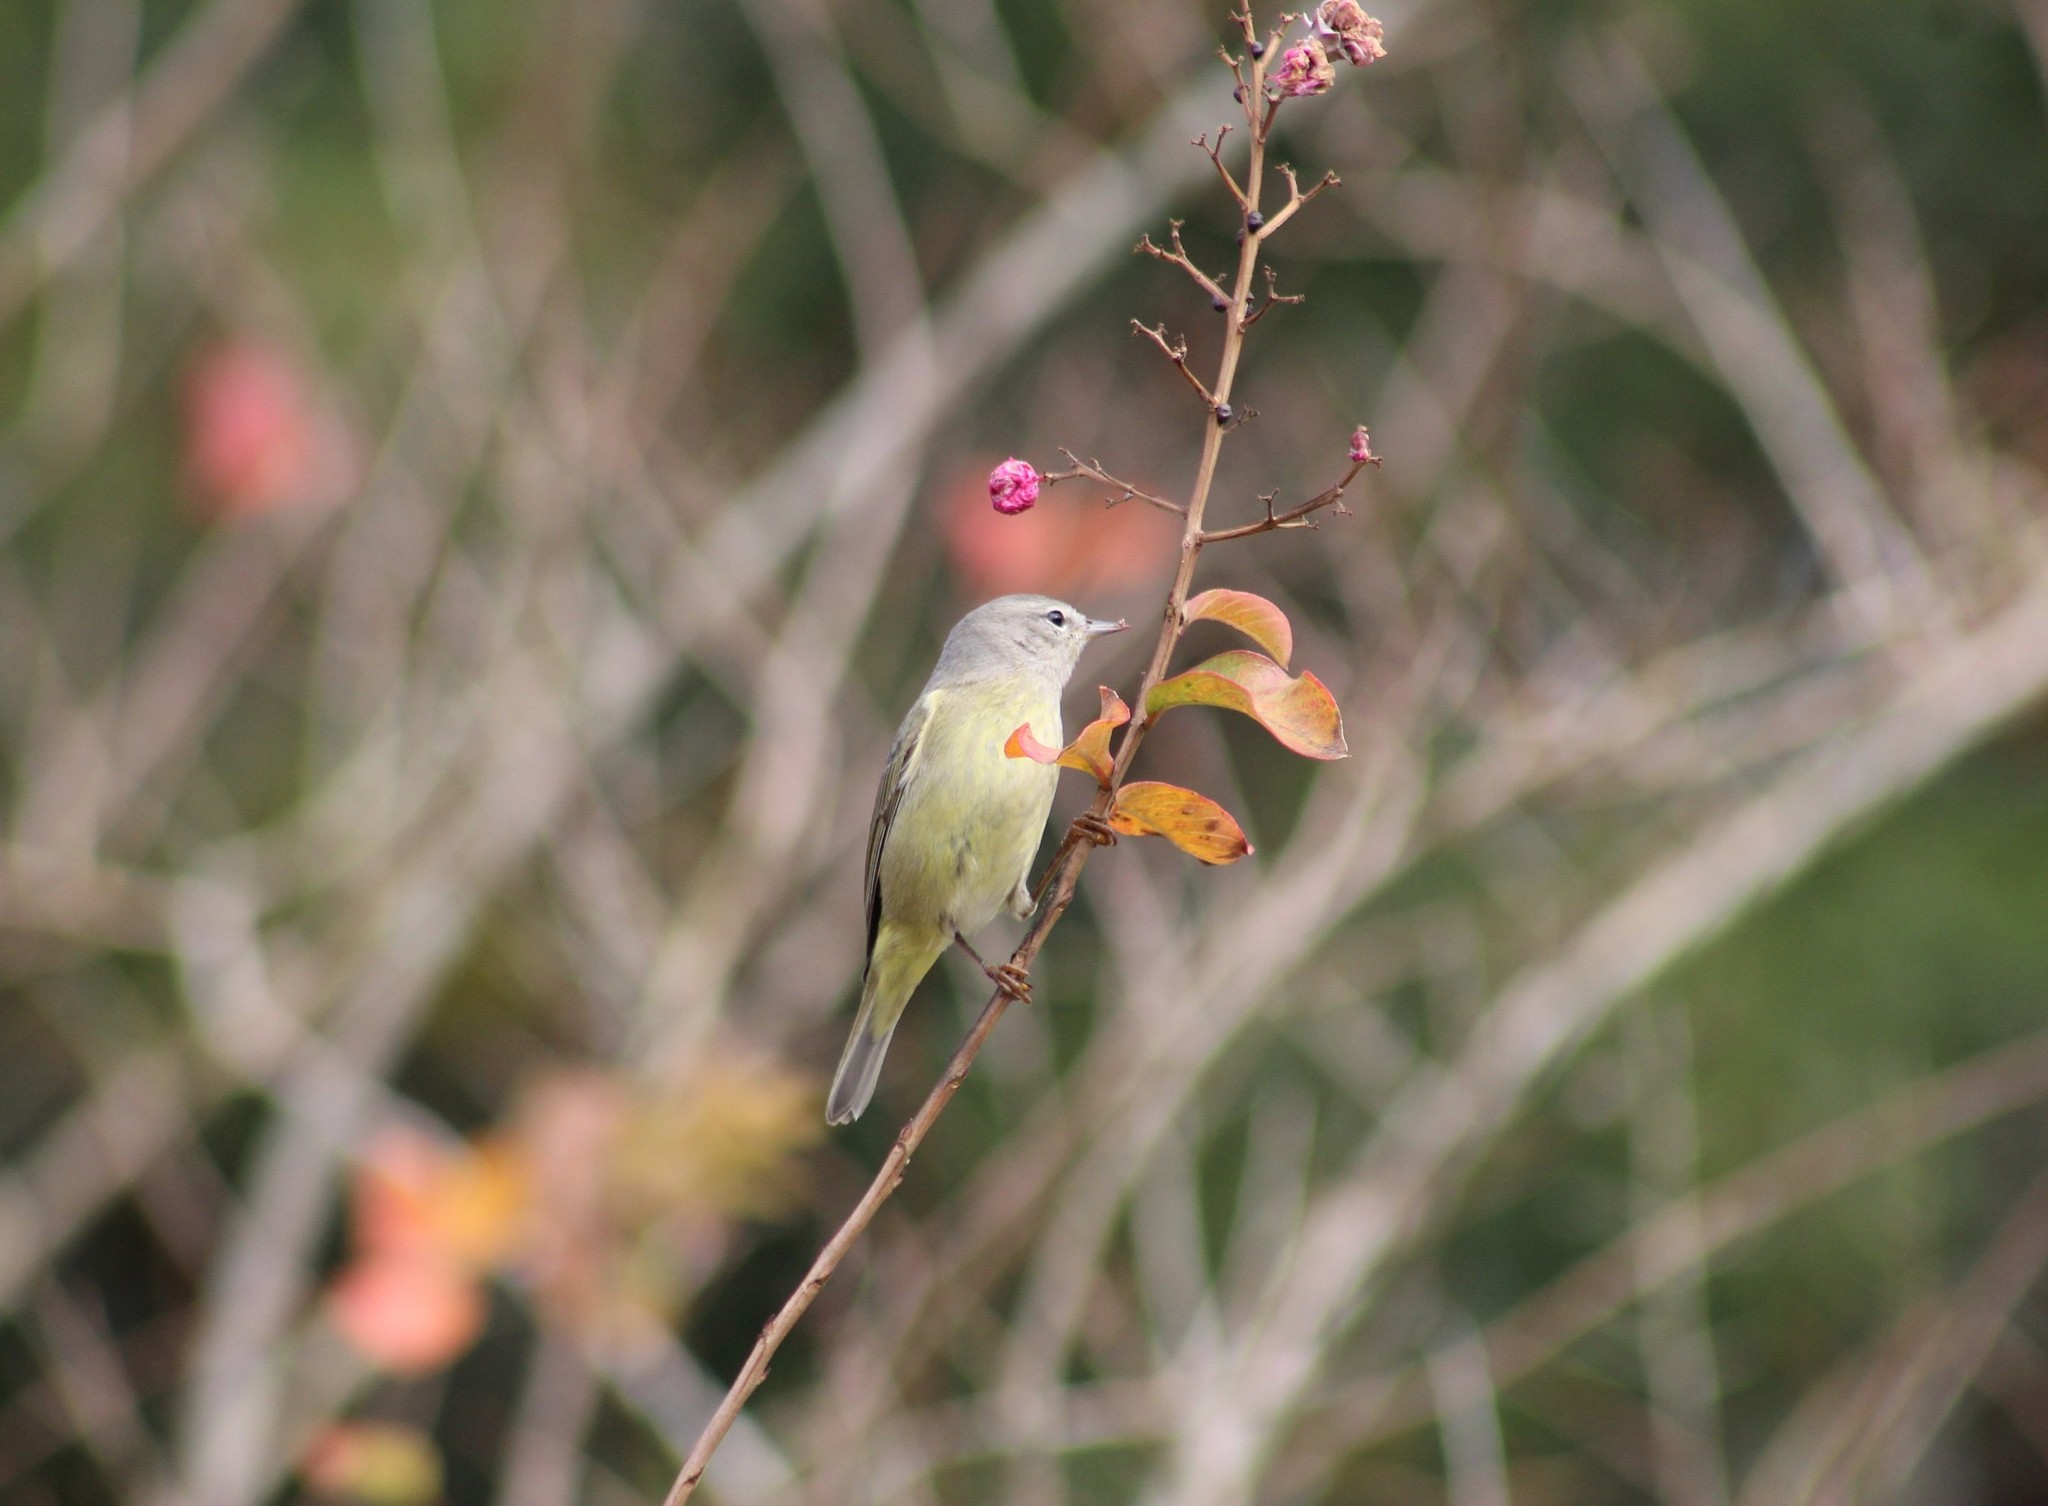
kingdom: Animalia
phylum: Chordata
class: Aves
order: Passeriformes
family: Parulidae
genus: Leiothlypis
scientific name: Leiothlypis celata
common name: Orange-crowned warbler
